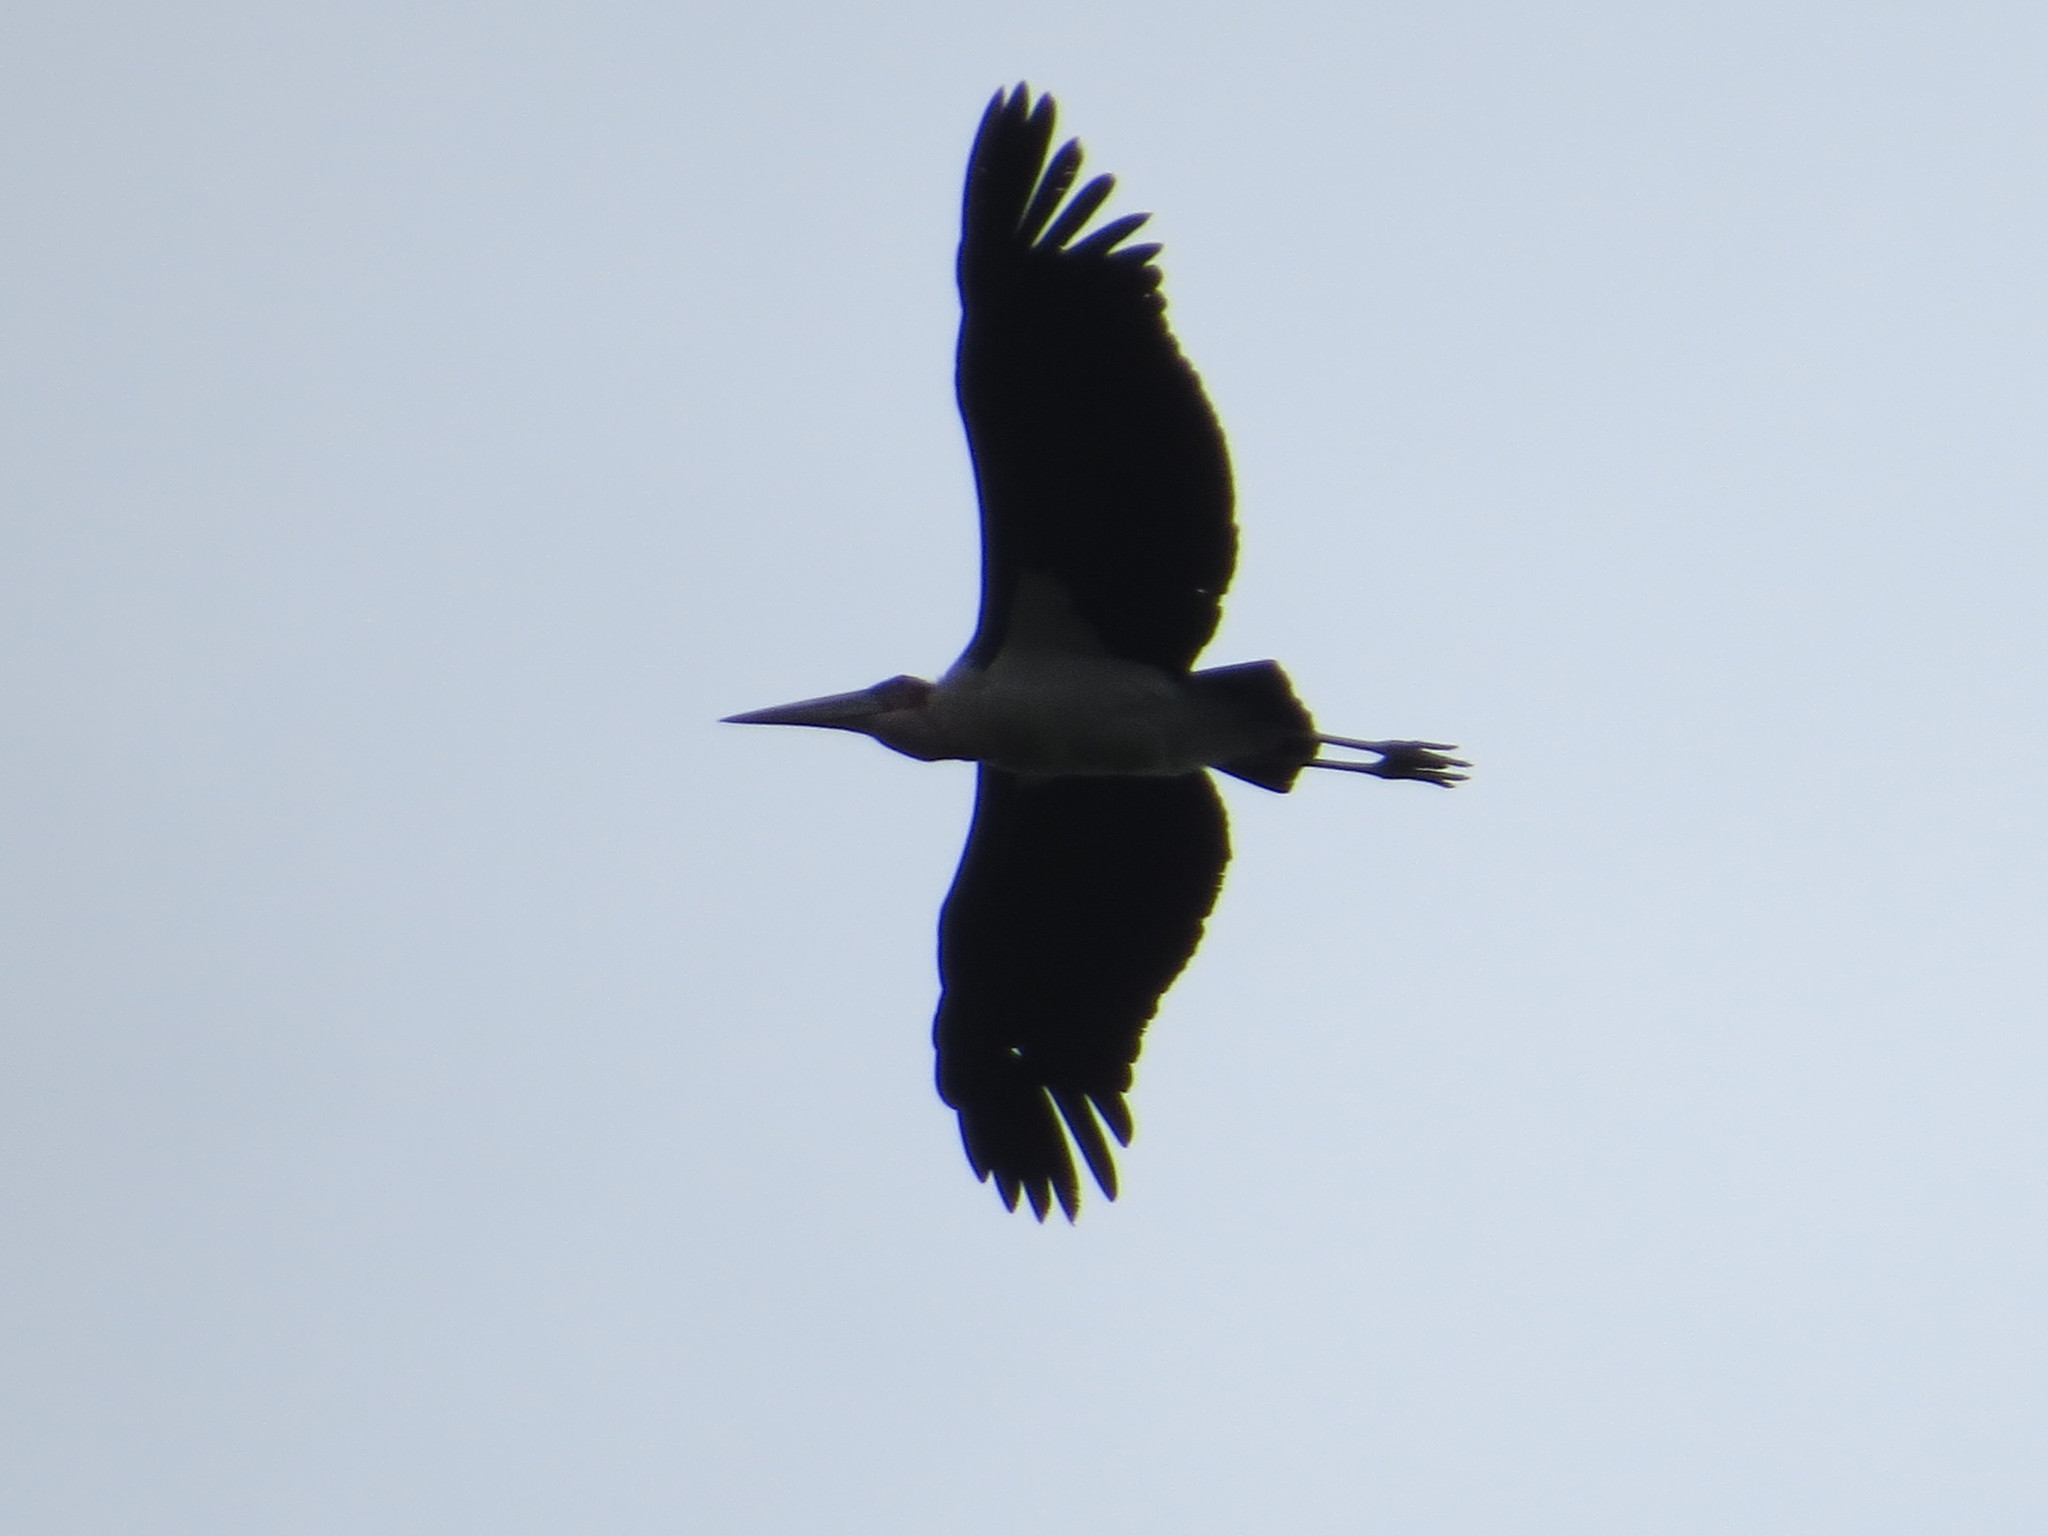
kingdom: Animalia
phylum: Chordata
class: Aves
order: Ciconiiformes
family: Ciconiidae
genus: Leptoptilos
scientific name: Leptoptilos crumenifer
